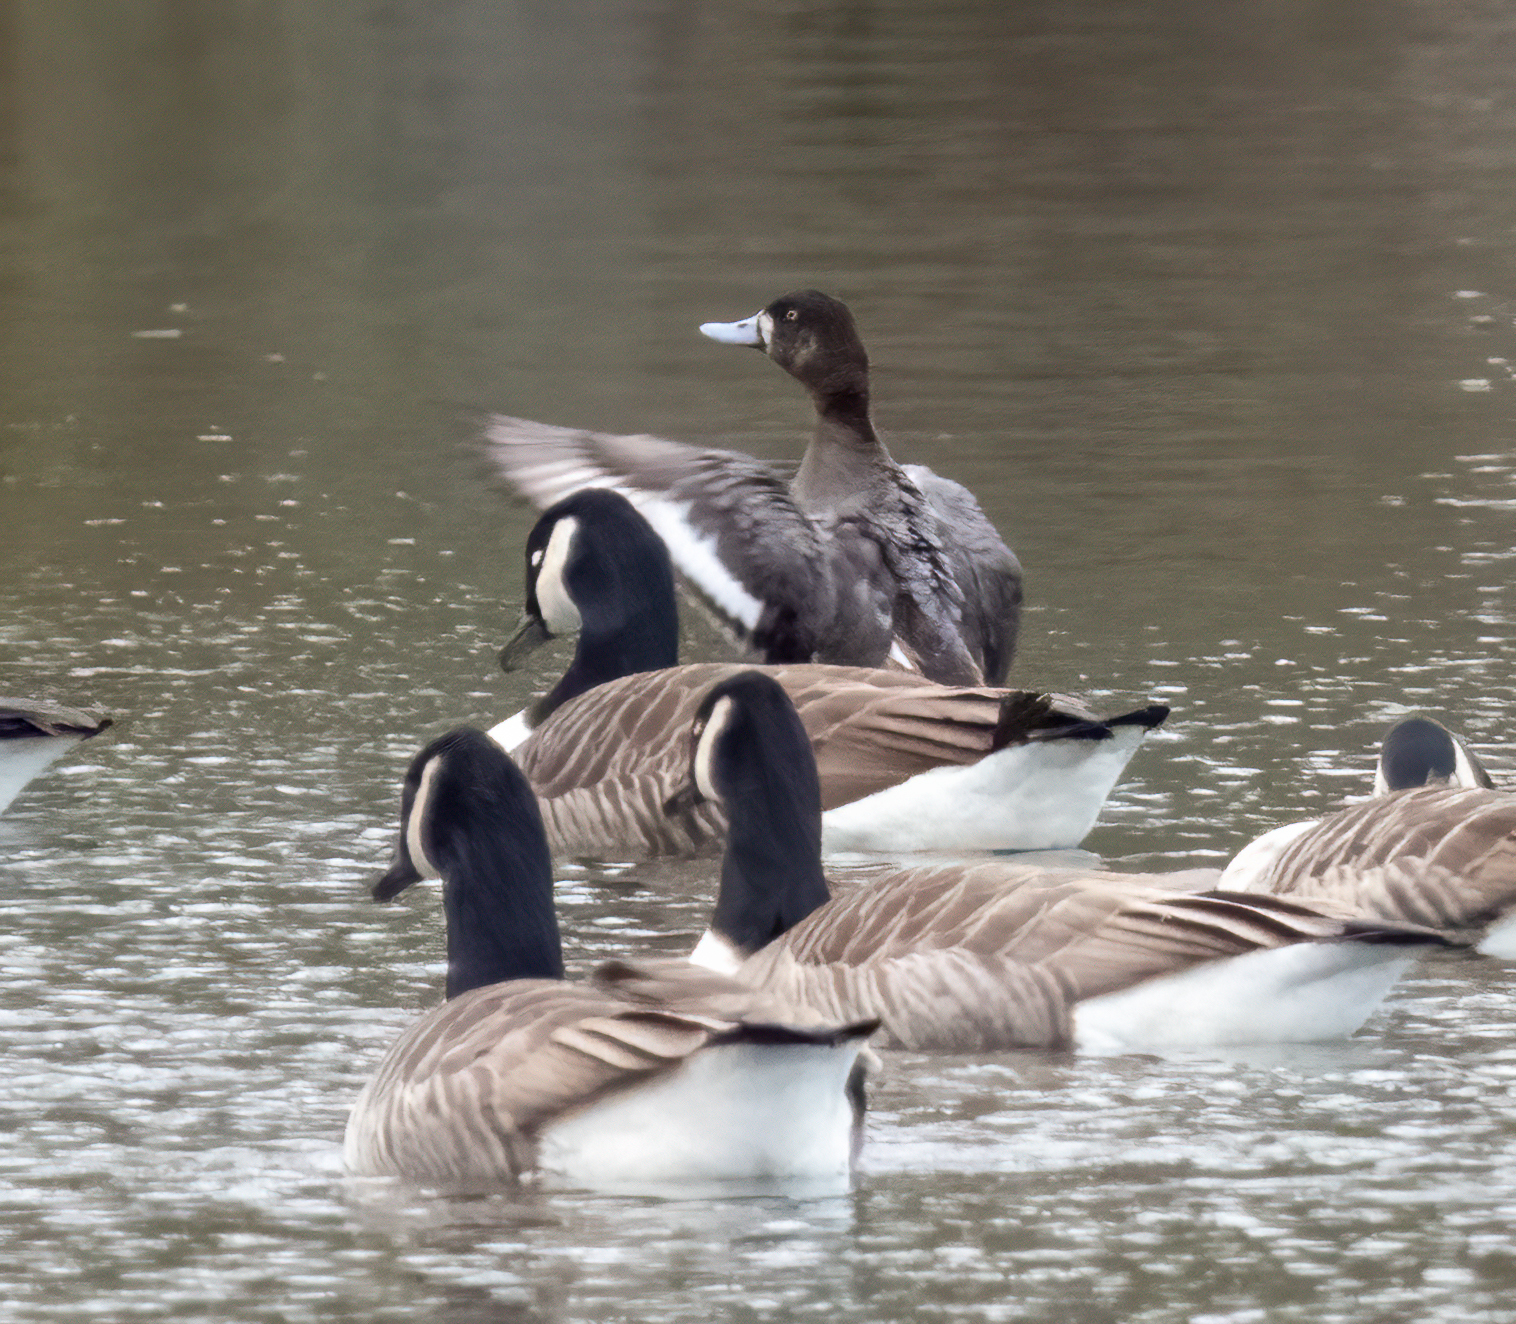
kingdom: Animalia
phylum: Chordata
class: Aves
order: Anseriformes
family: Anatidae
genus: Aythya
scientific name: Aythya marila
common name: Greater scaup
